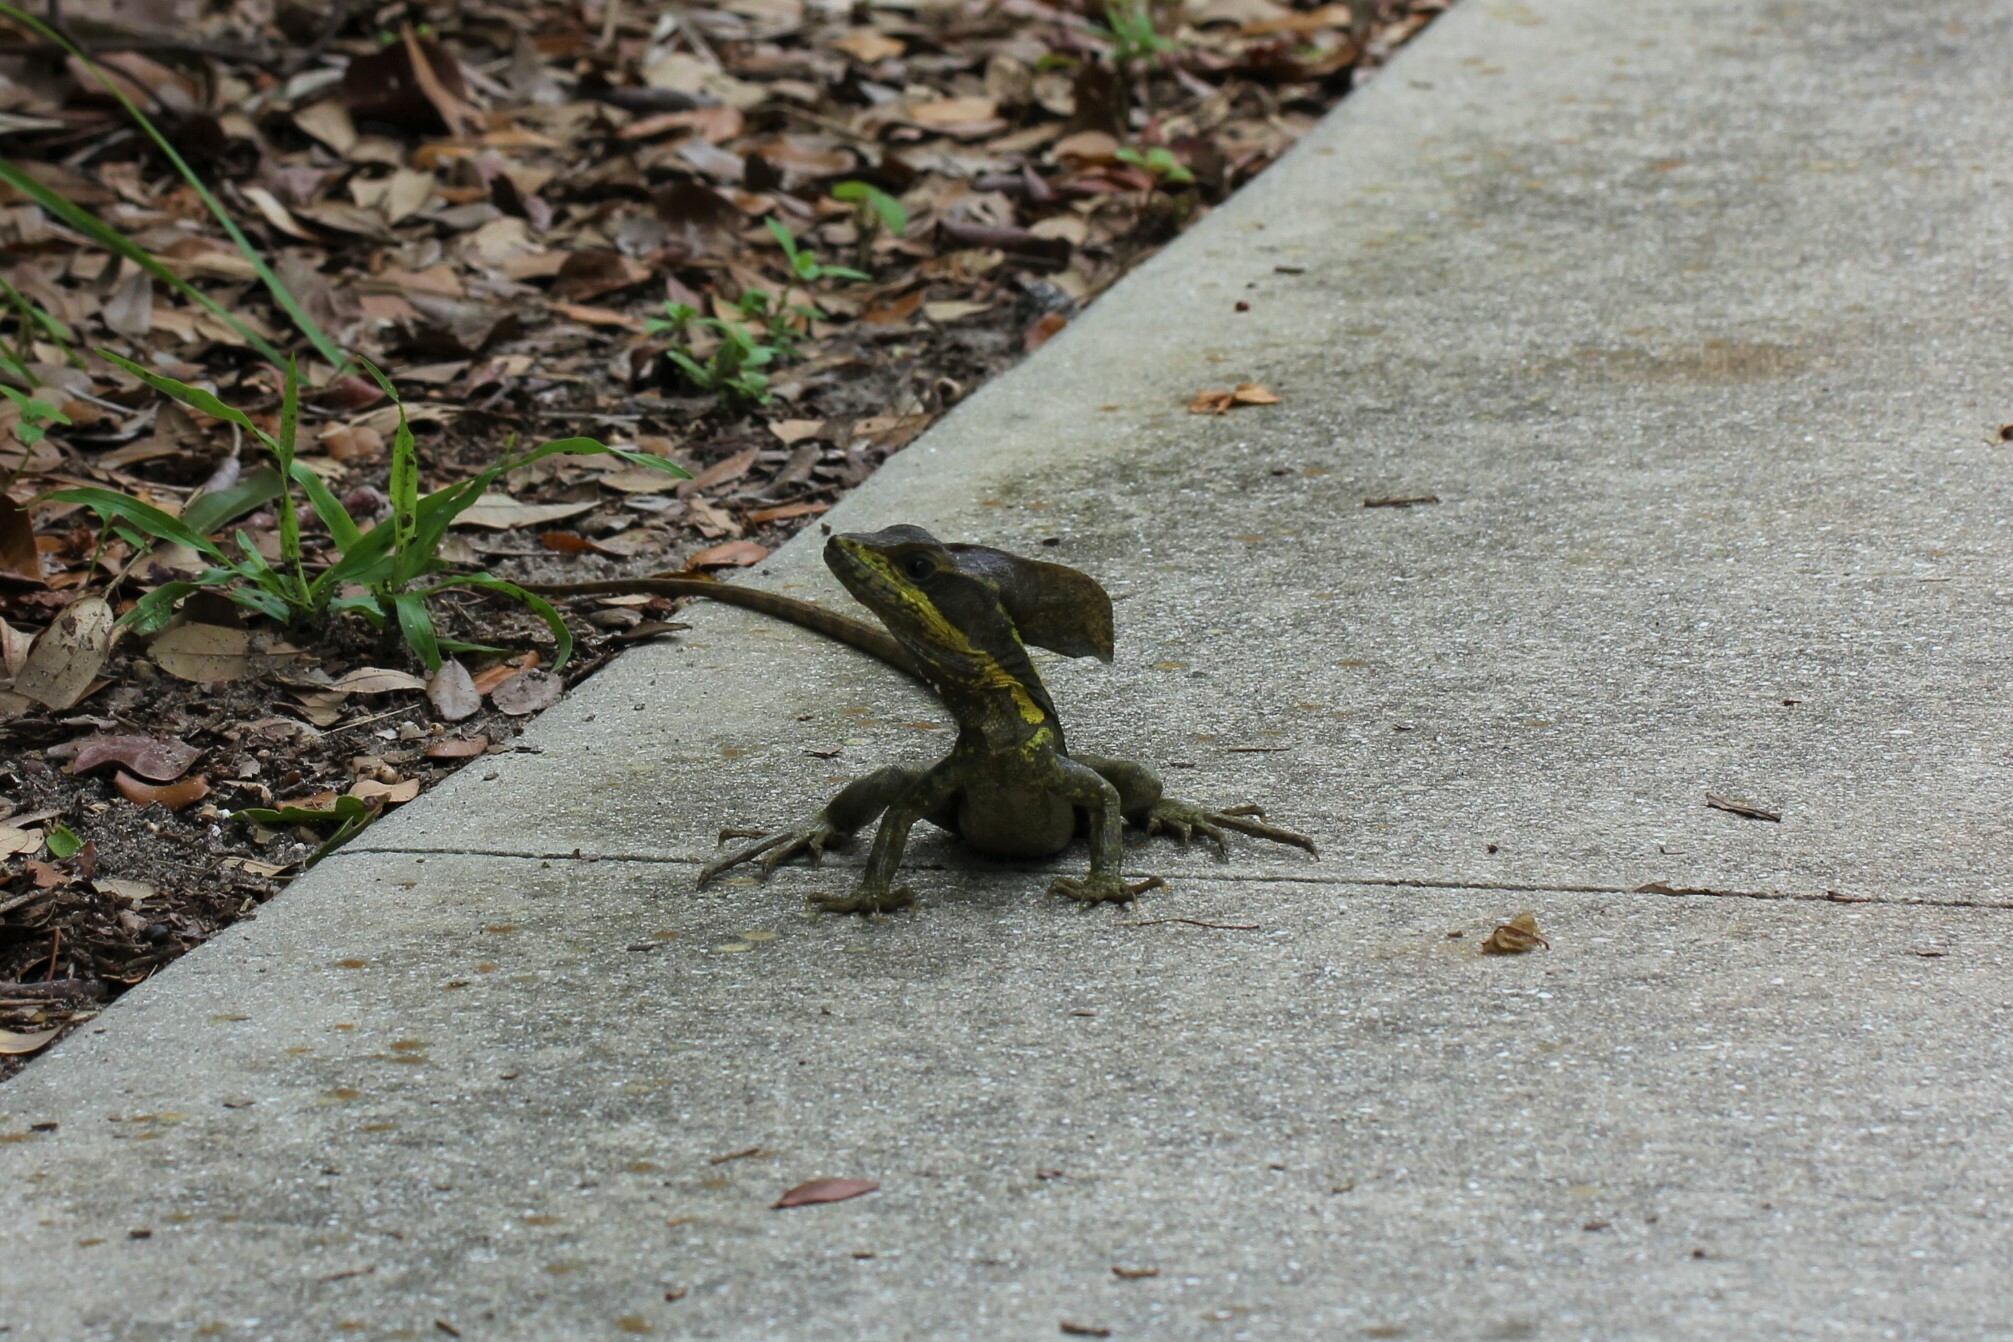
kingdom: Animalia
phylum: Chordata
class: Squamata
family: Corytophanidae
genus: Basiliscus
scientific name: Basiliscus vittatus
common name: Brown basilisk
